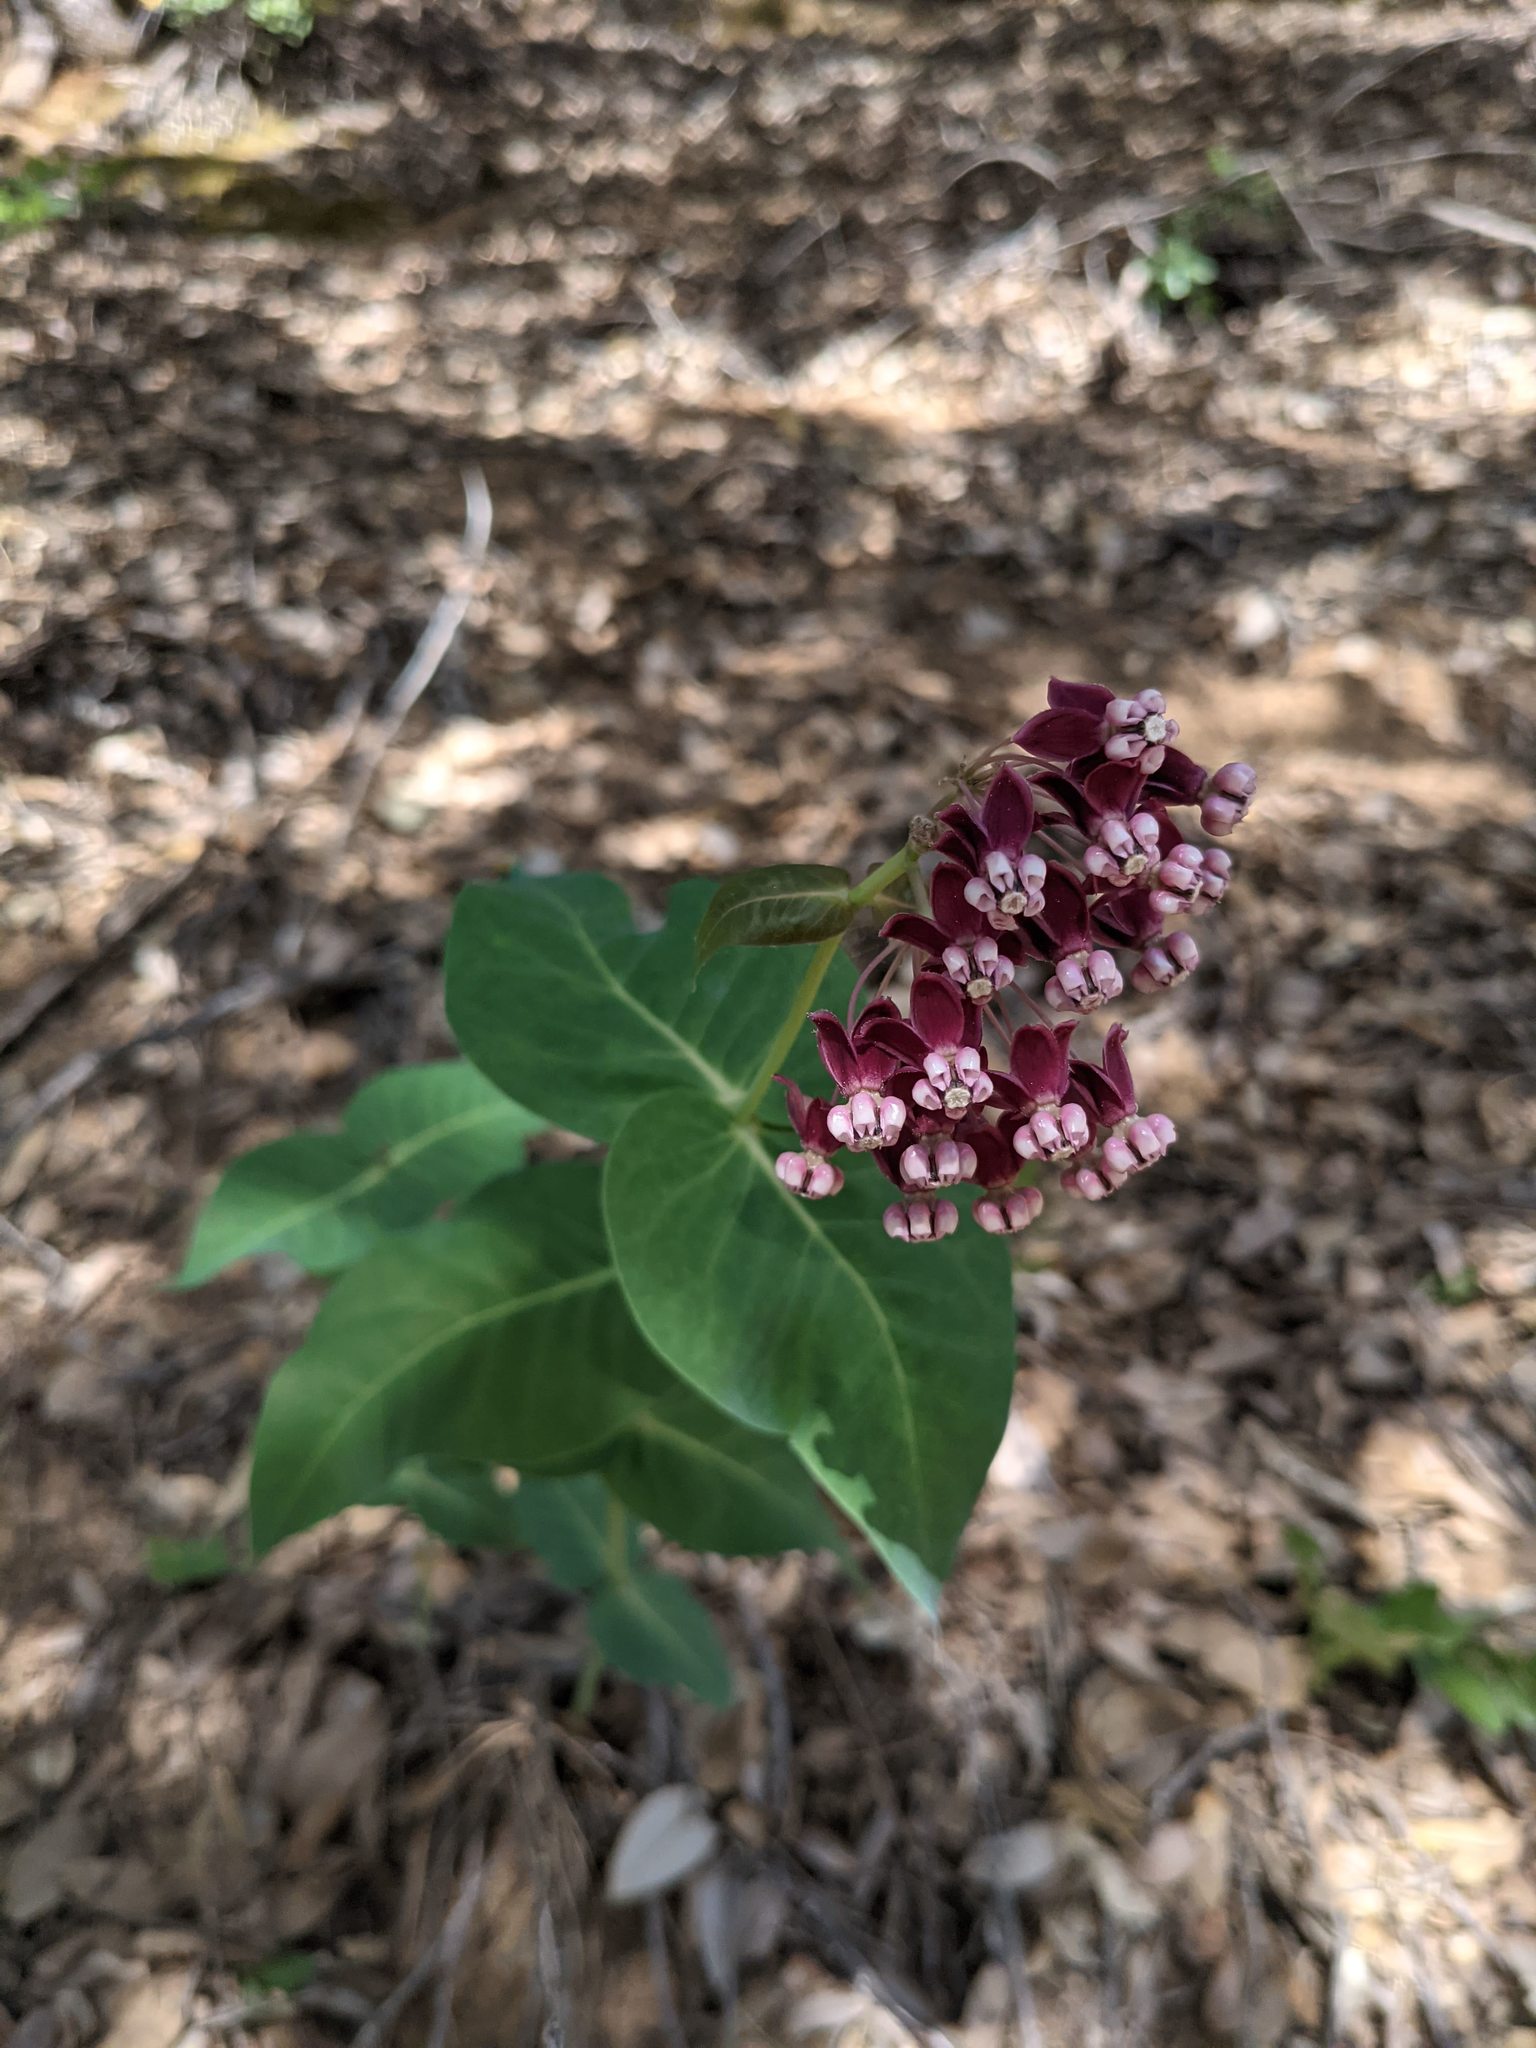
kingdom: Plantae
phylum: Tracheophyta
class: Magnoliopsida
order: Gentianales
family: Apocynaceae
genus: Asclepias
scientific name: Asclepias cordifolia
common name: Purple milkweed
